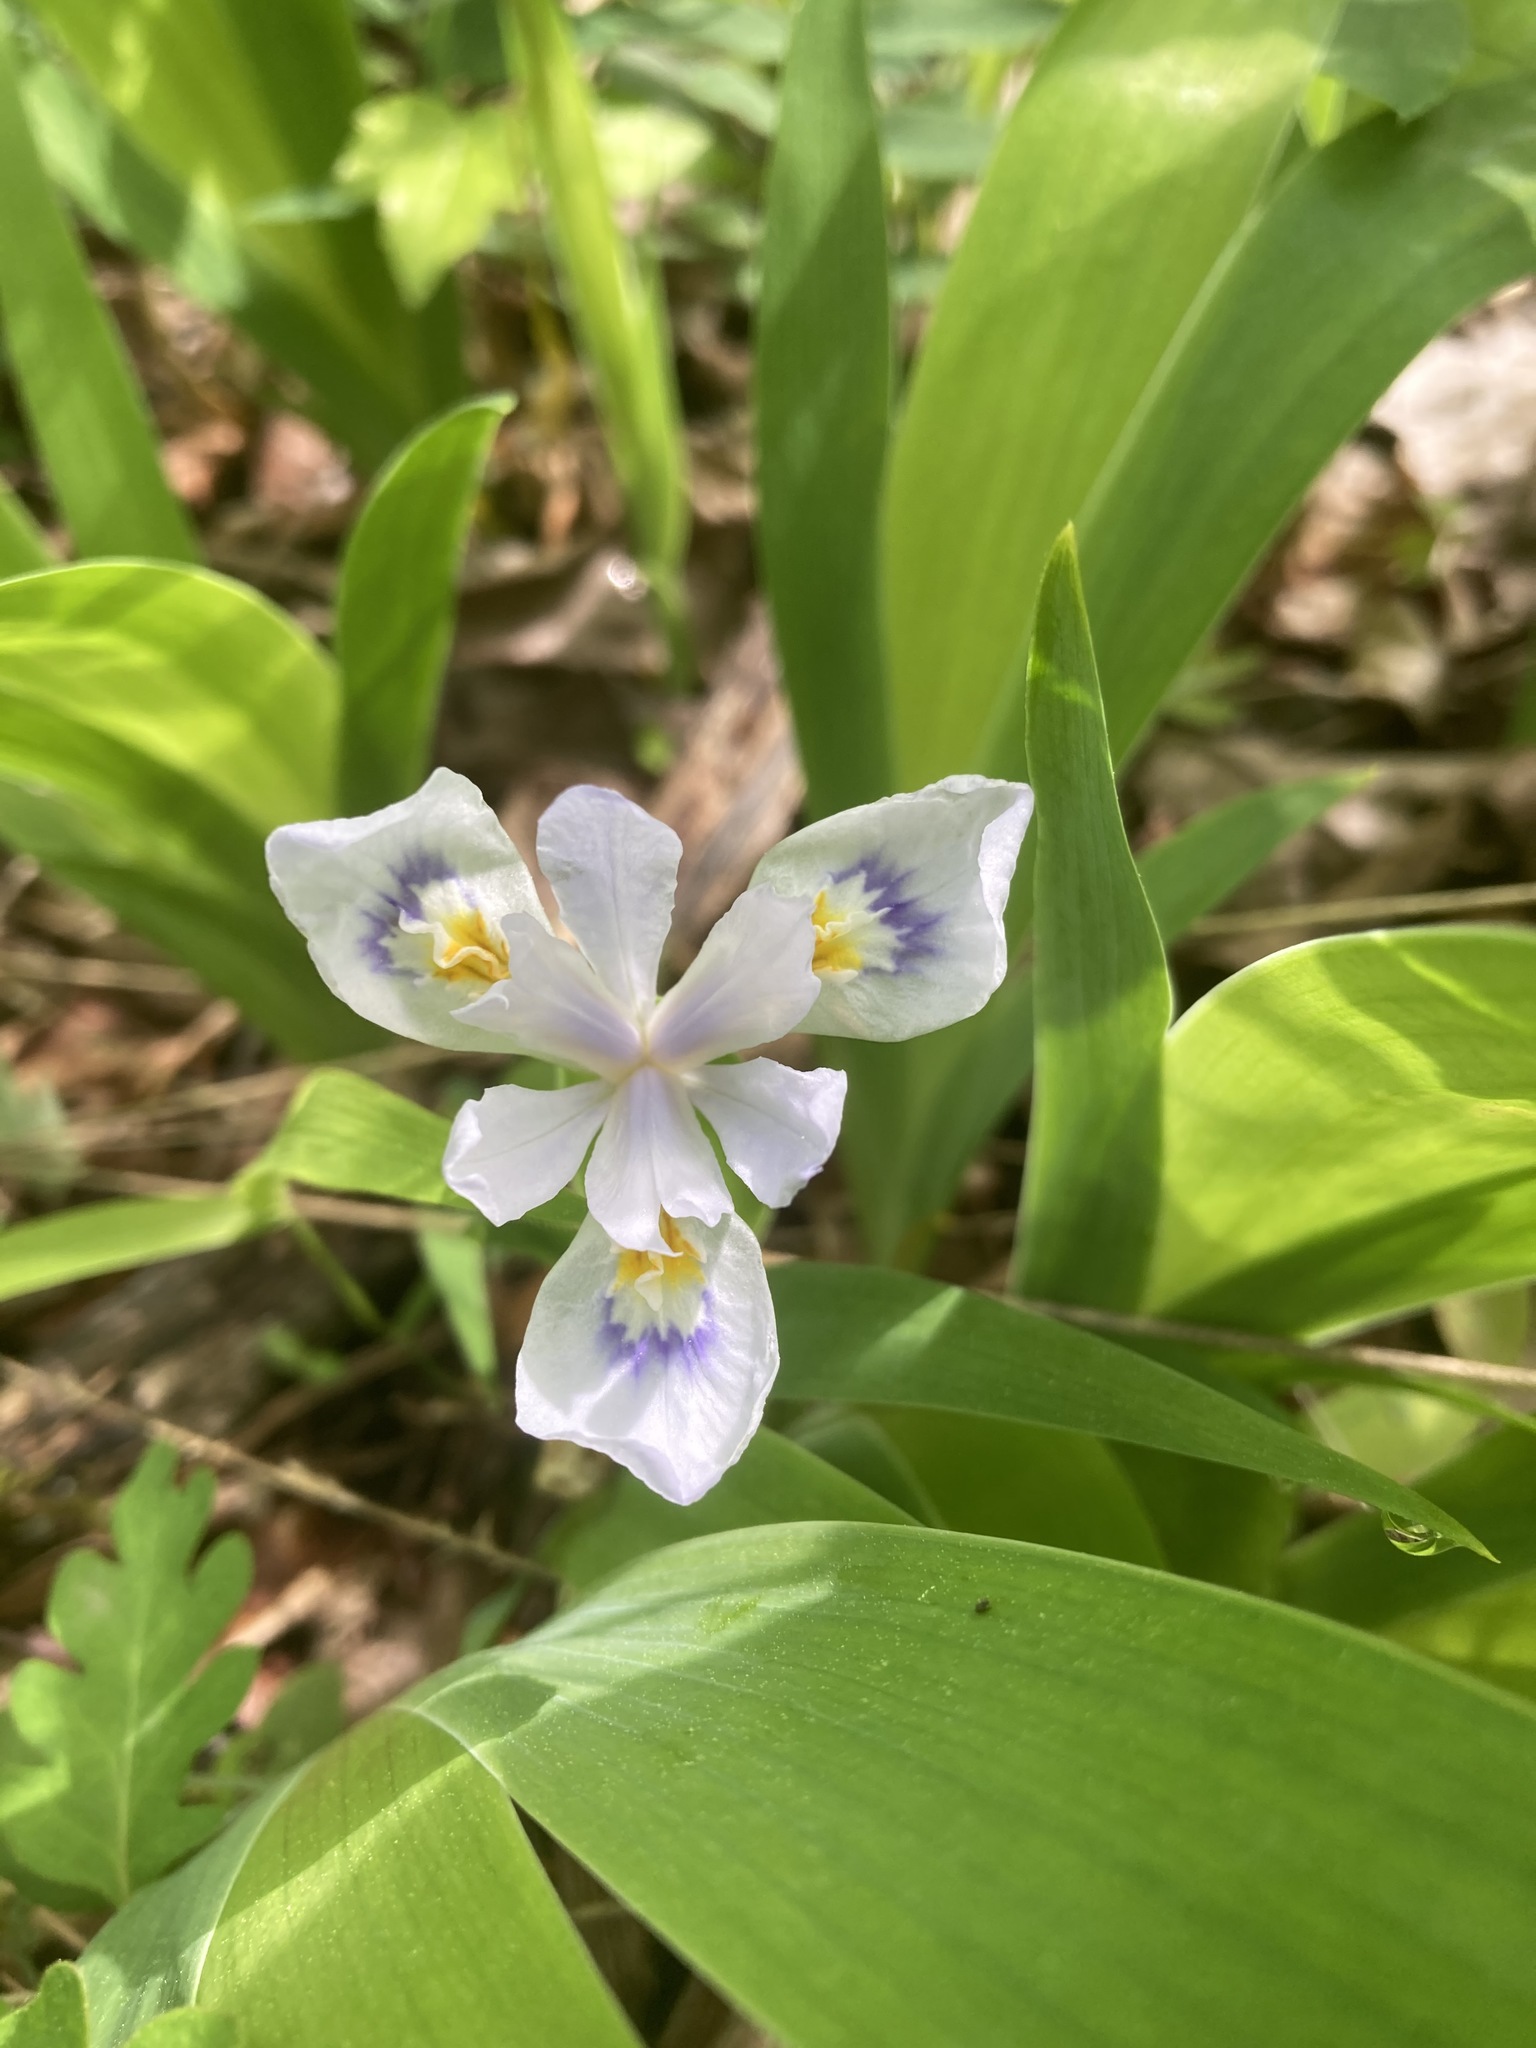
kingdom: Plantae
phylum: Tracheophyta
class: Liliopsida
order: Asparagales
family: Iridaceae
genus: Iris
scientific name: Iris cristata
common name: Crested iris
